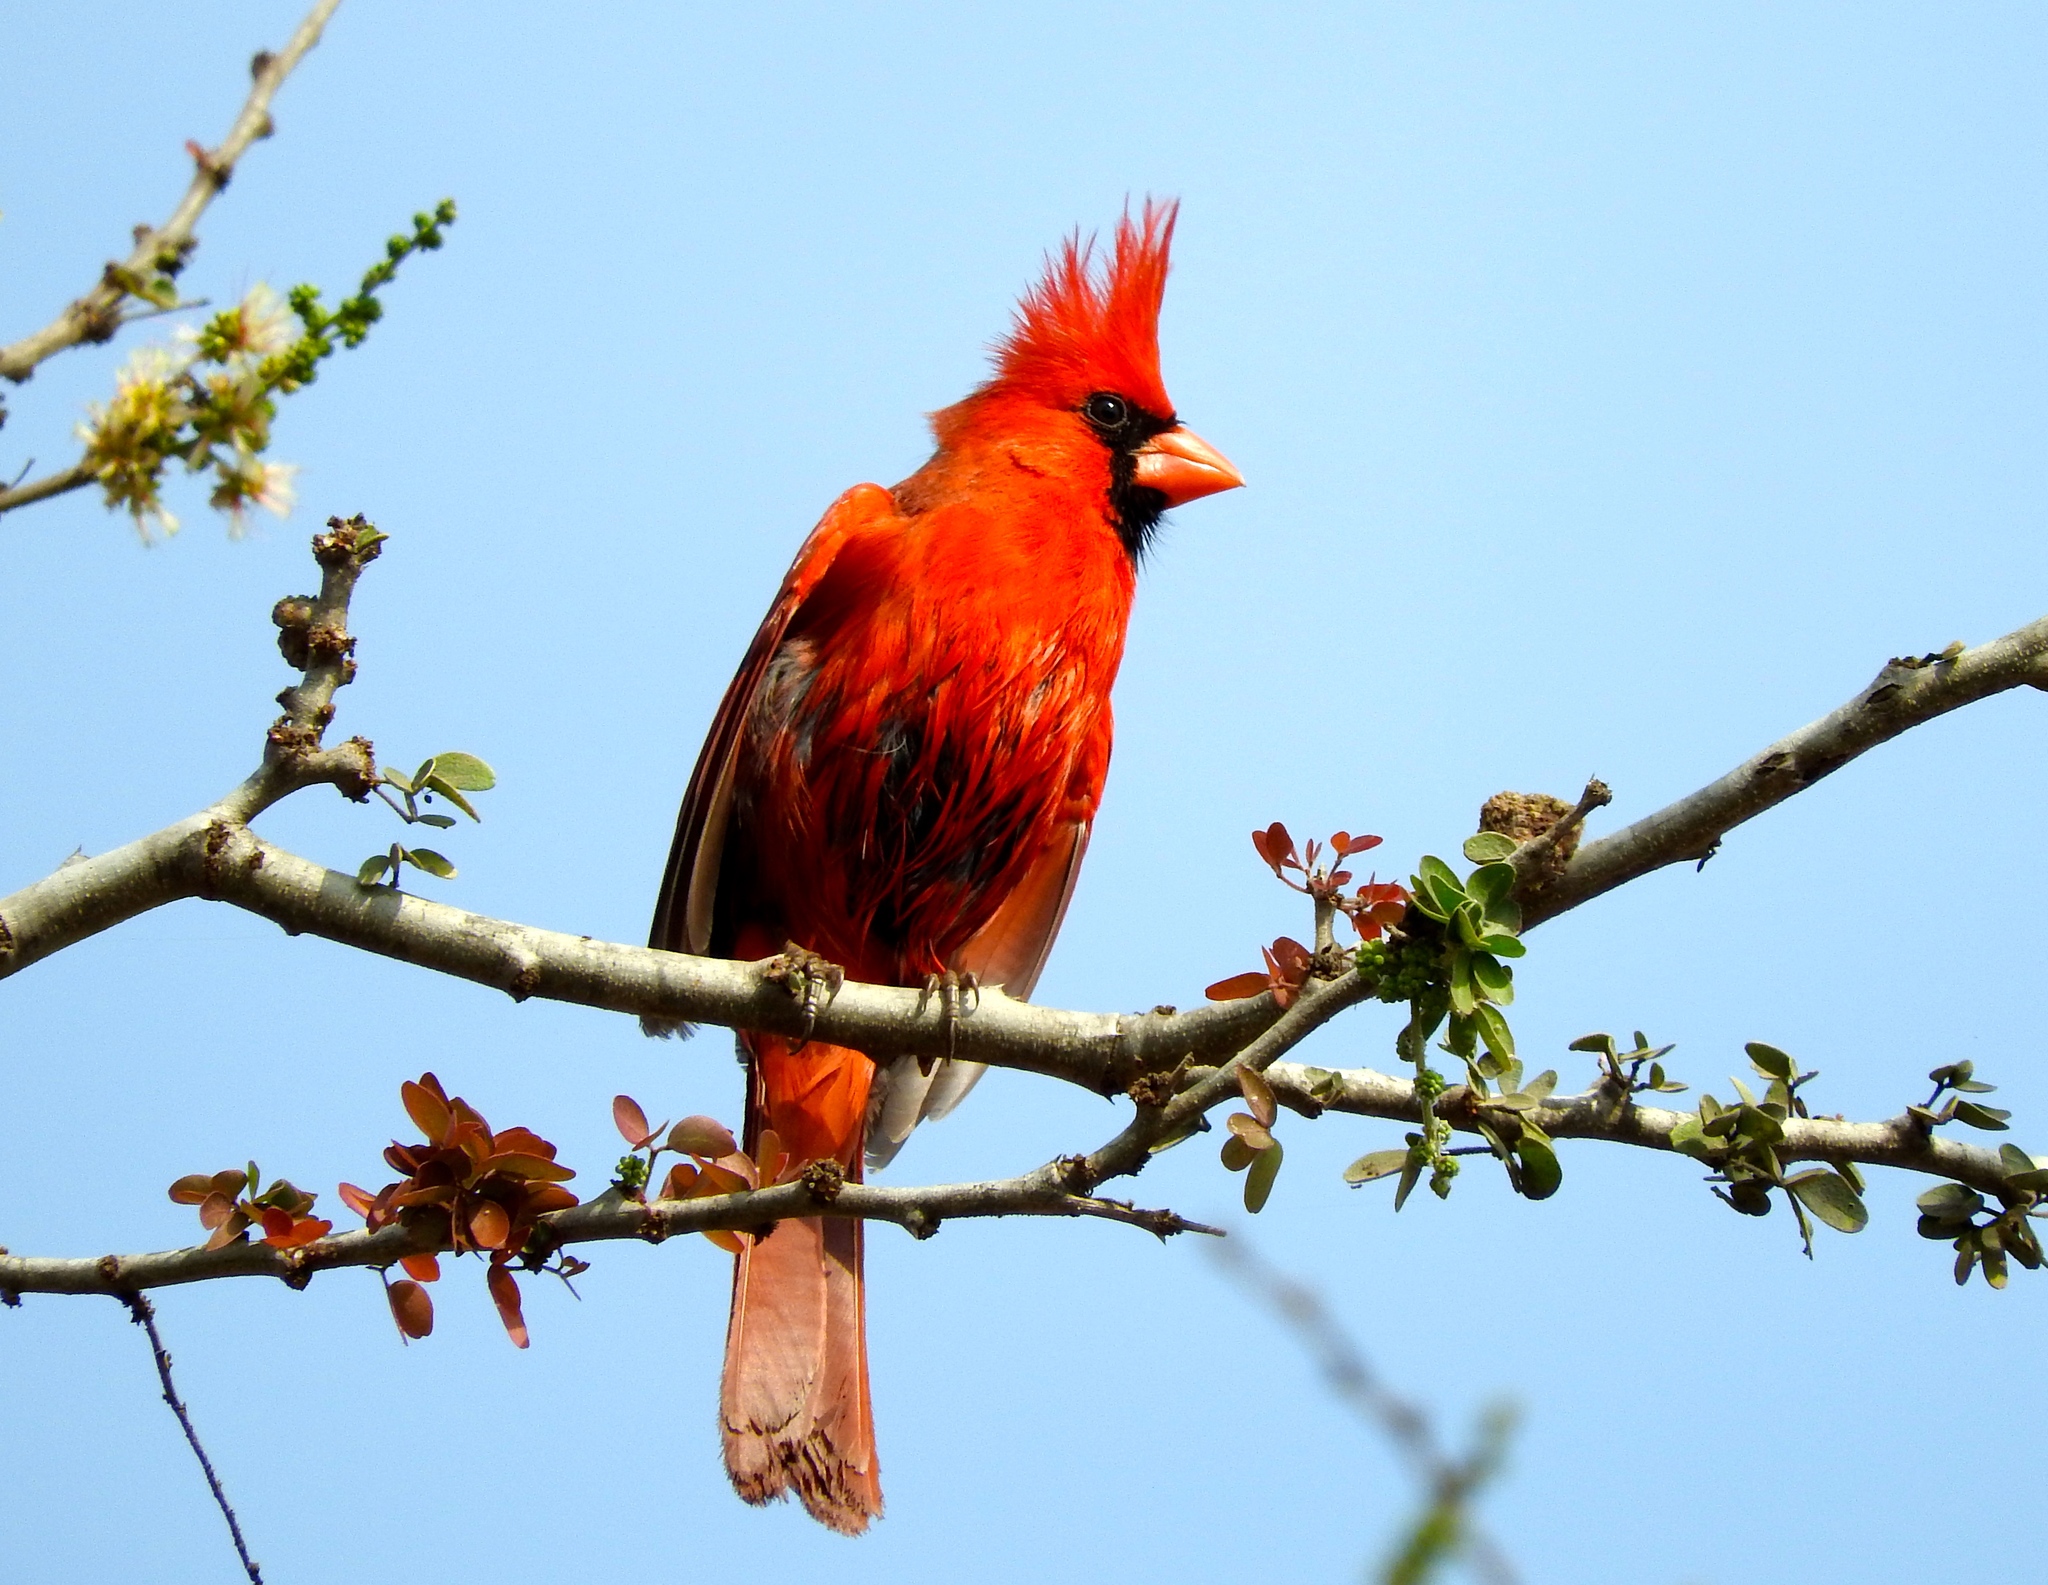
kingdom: Animalia
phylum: Chordata
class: Aves
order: Passeriformes
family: Cardinalidae
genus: Cardinalis
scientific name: Cardinalis cardinalis
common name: Northern cardinal
